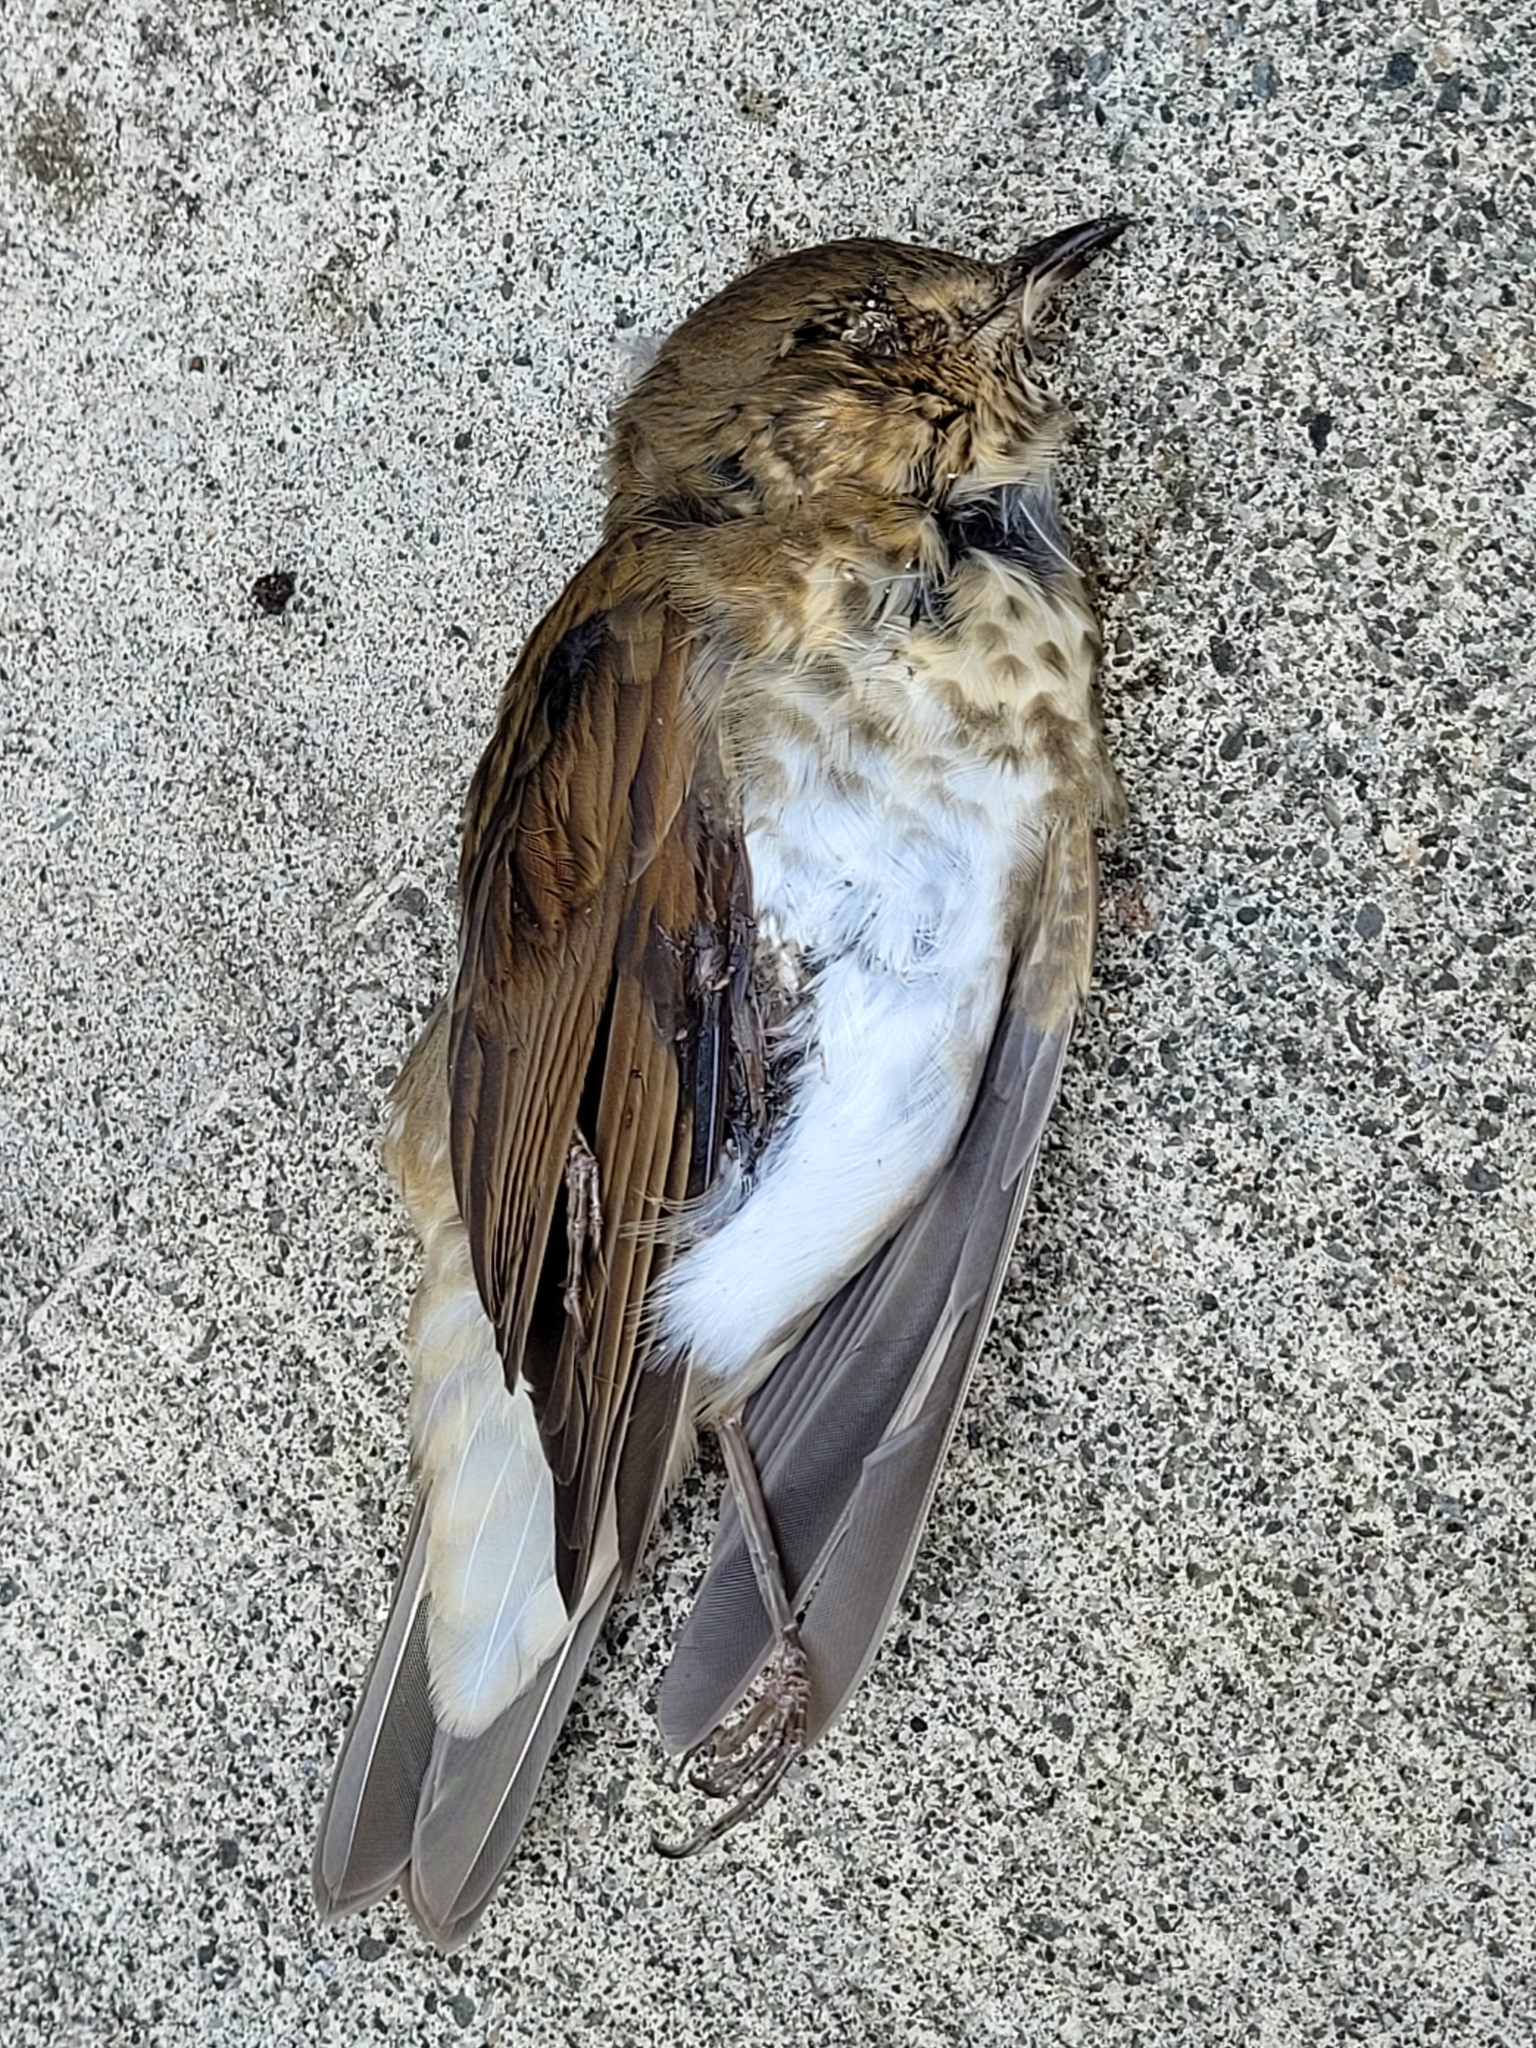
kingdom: Animalia
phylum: Chordata
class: Aves
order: Passeriformes
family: Turdidae
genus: Catharus
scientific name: Catharus ustulatus
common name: Swainson's thrush
